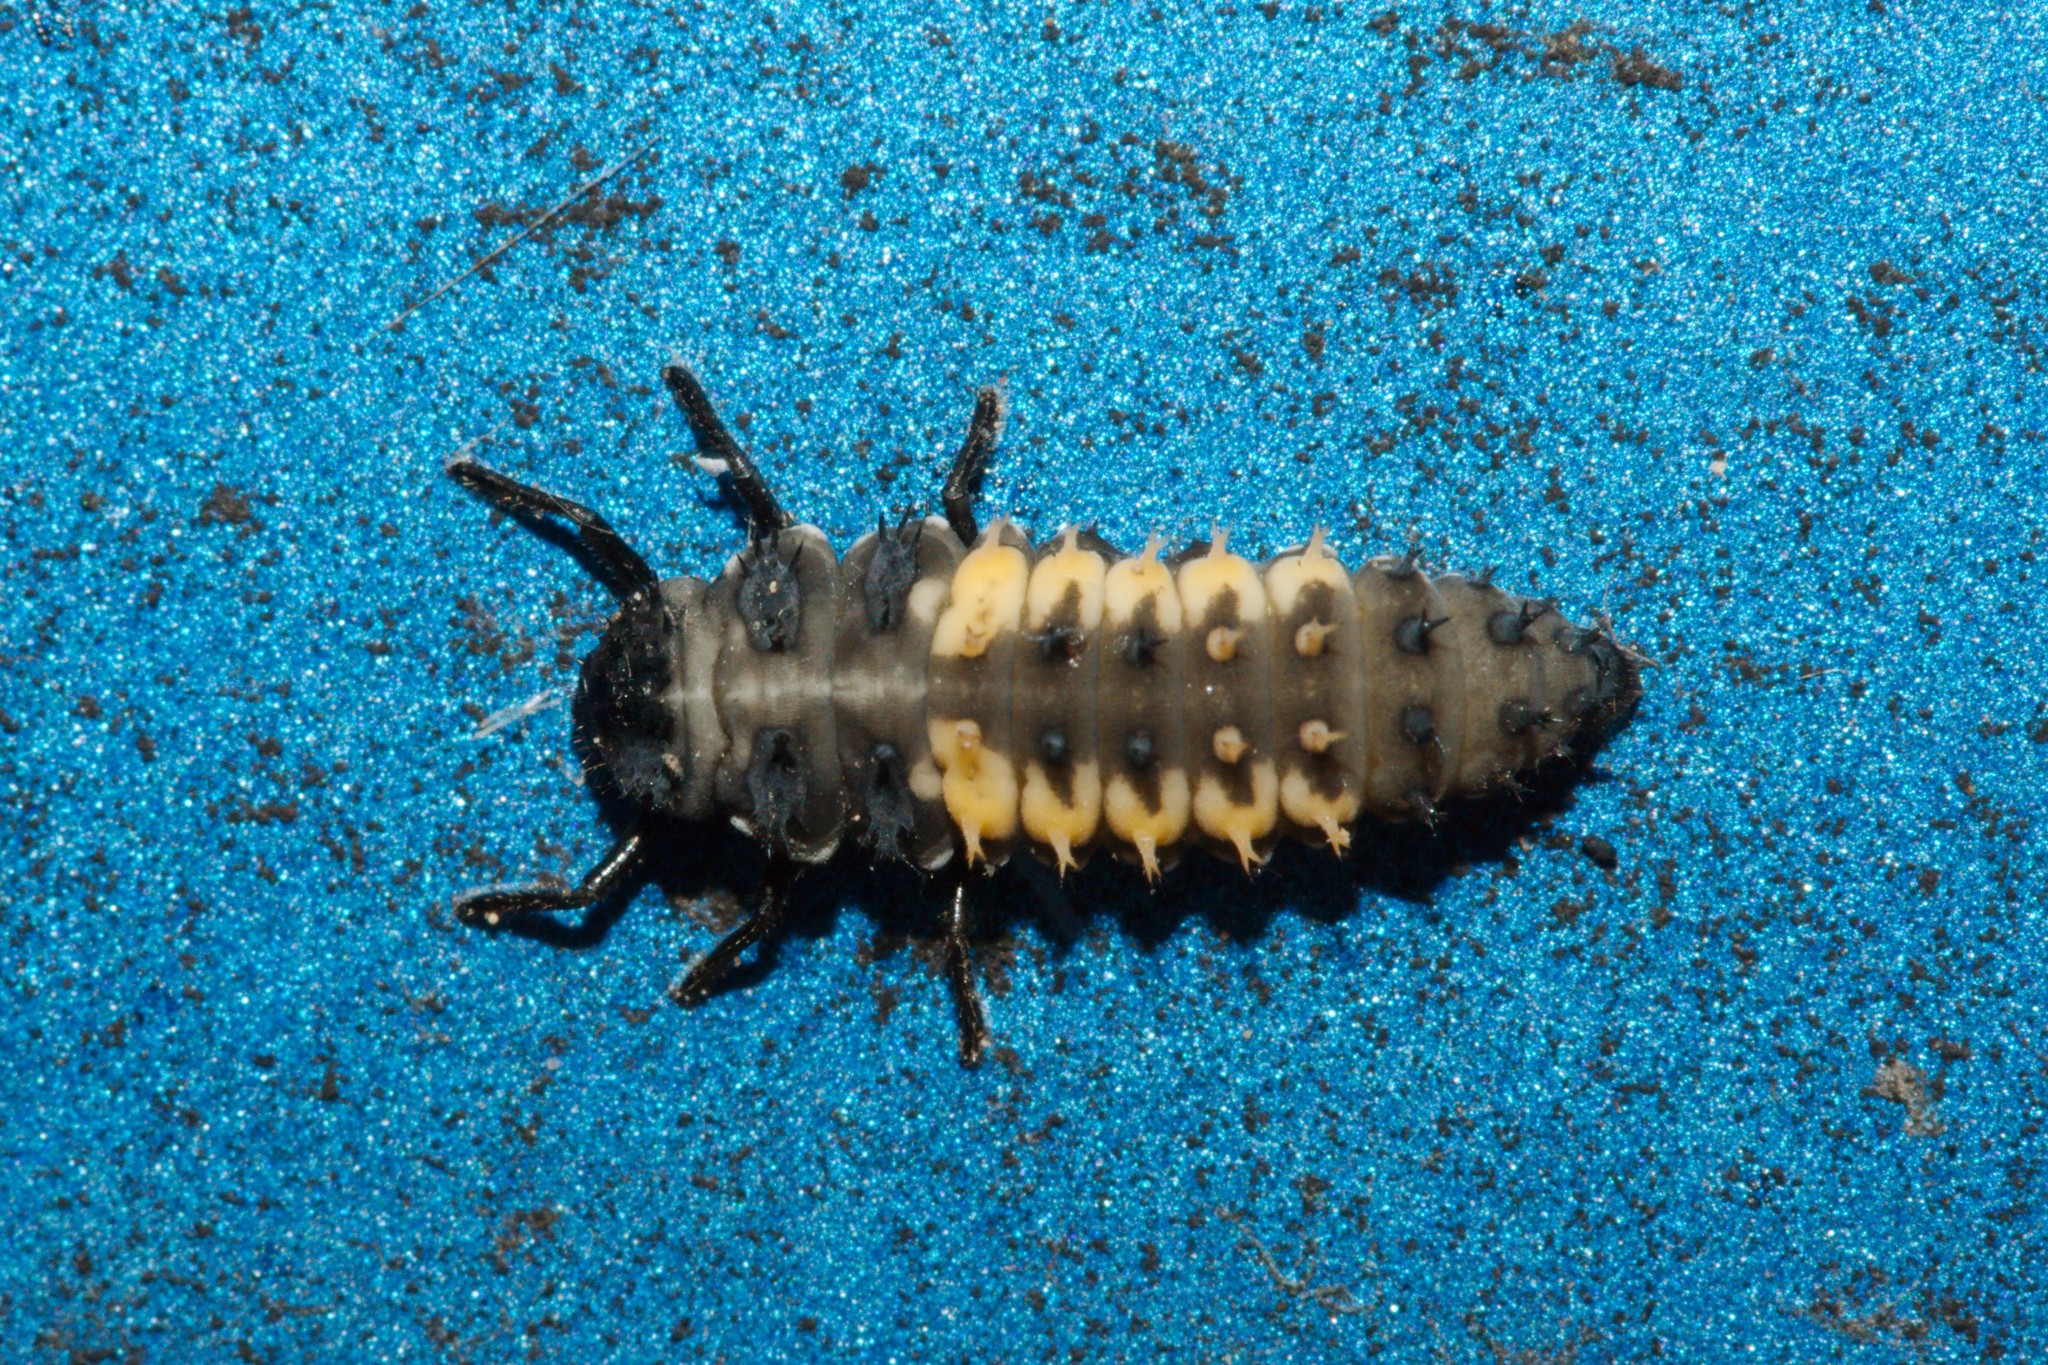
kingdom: Animalia
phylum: Arthropoda
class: Insecta
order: Coleoptera
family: Coccinellidae
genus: Harmonia
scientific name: Harmonia axyridis
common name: Harlequin ladybird
